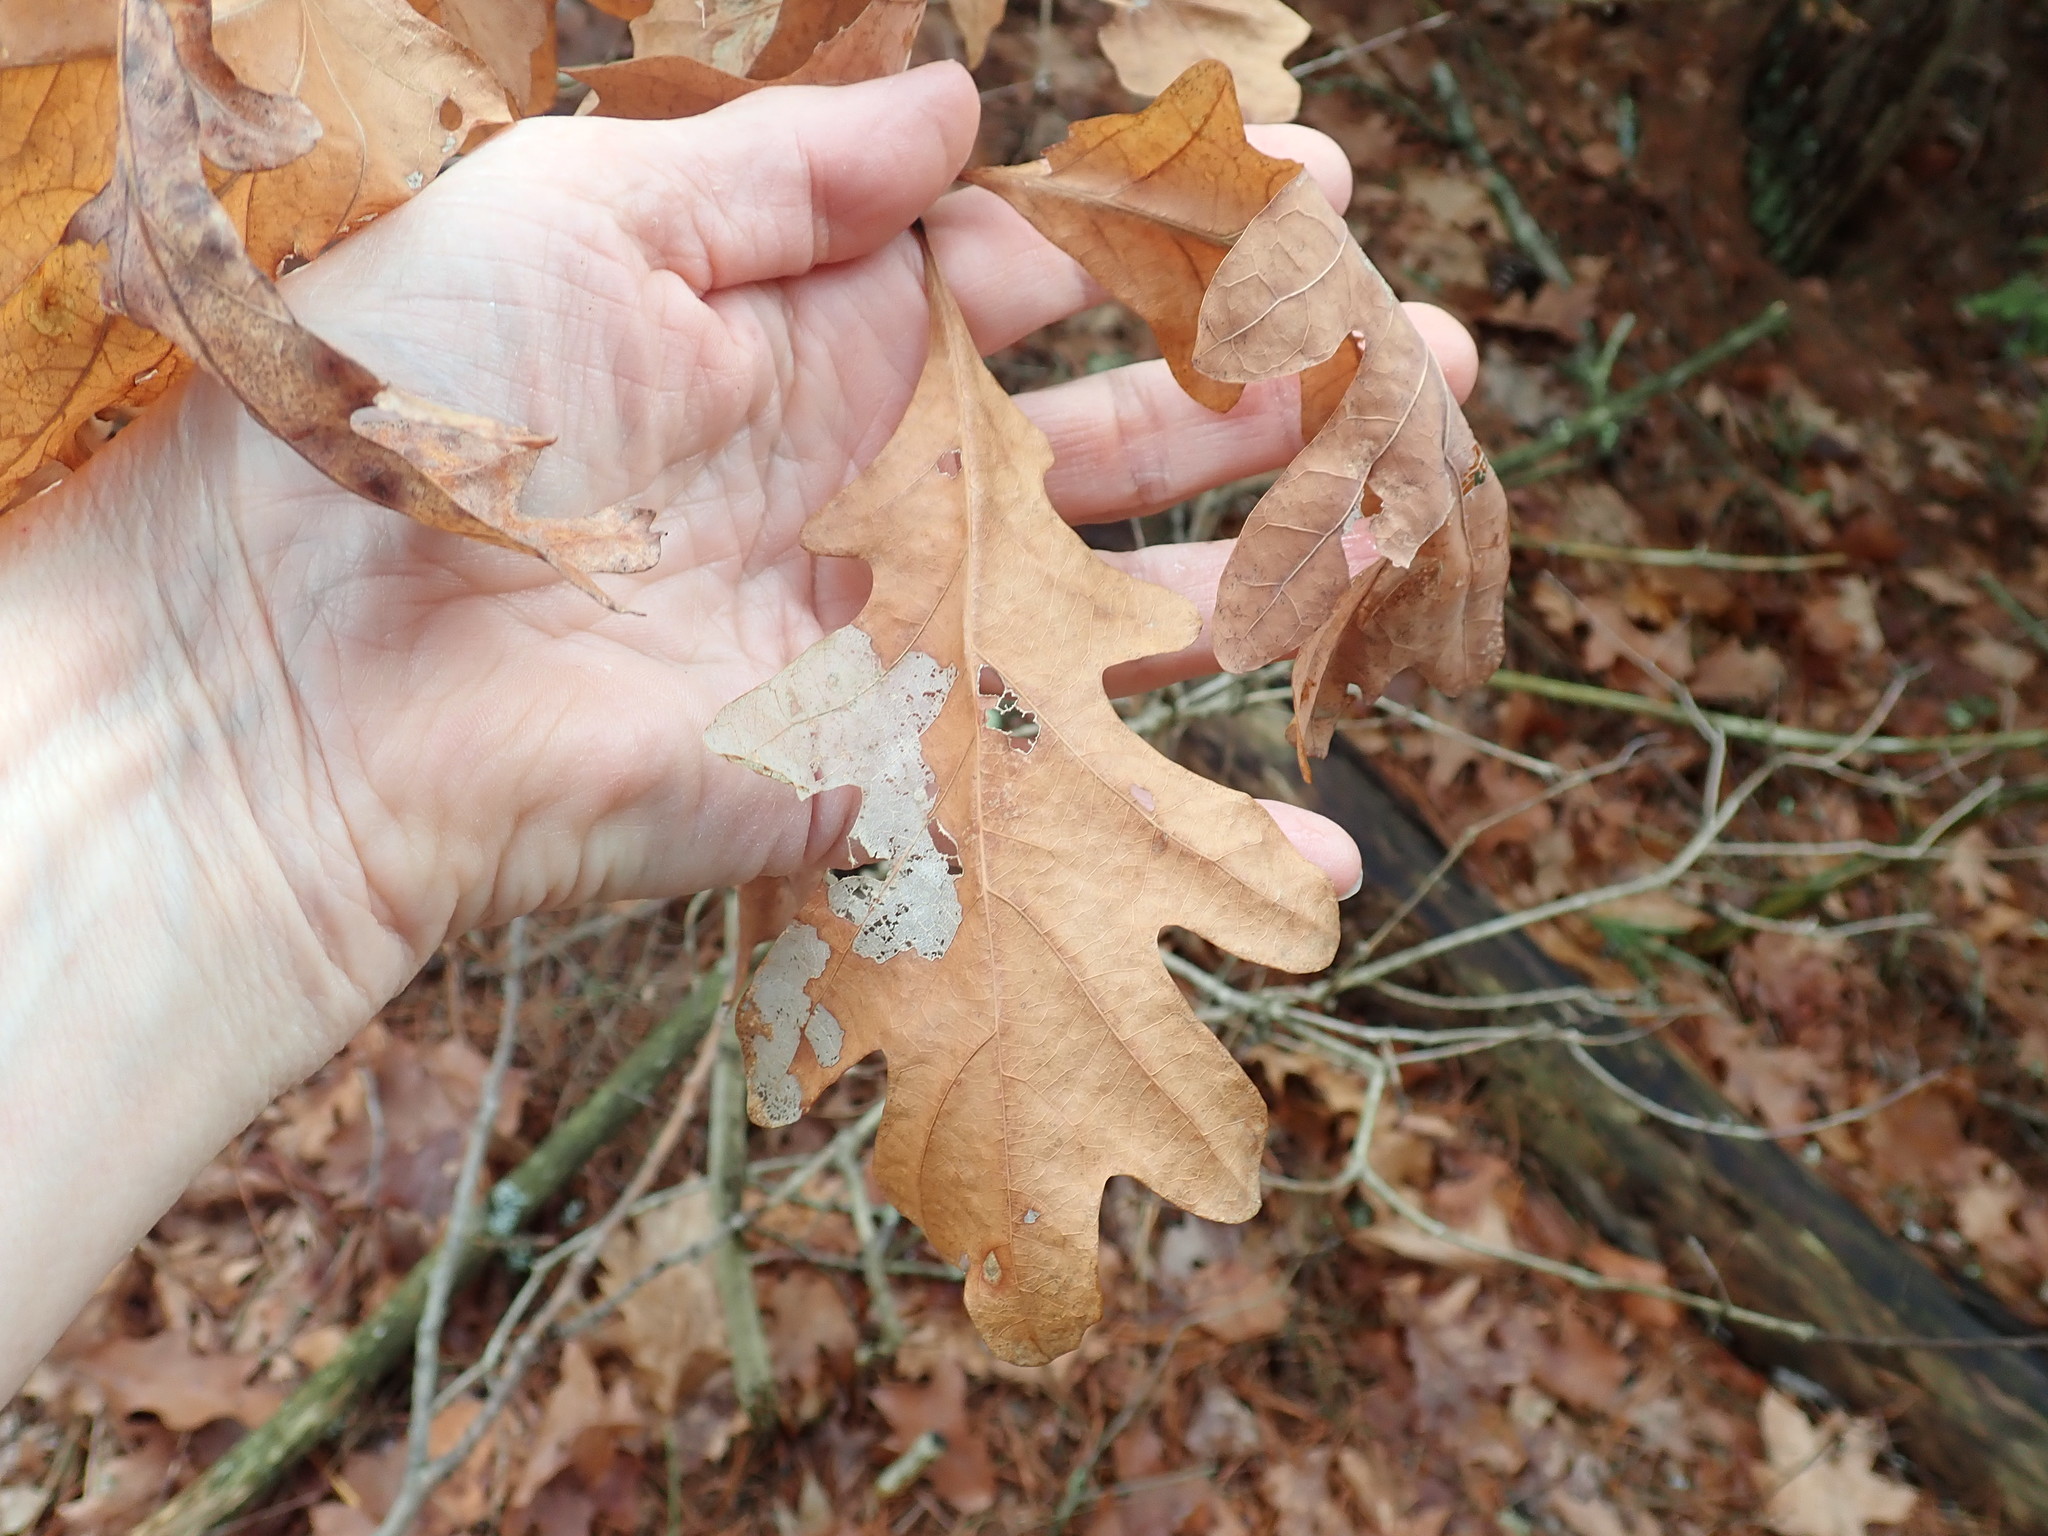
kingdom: Plantae
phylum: Tracheophyta
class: Magnoliopsida
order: Fagales
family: Fagaceae
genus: Quercus
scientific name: Quercus alba
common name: White oak
